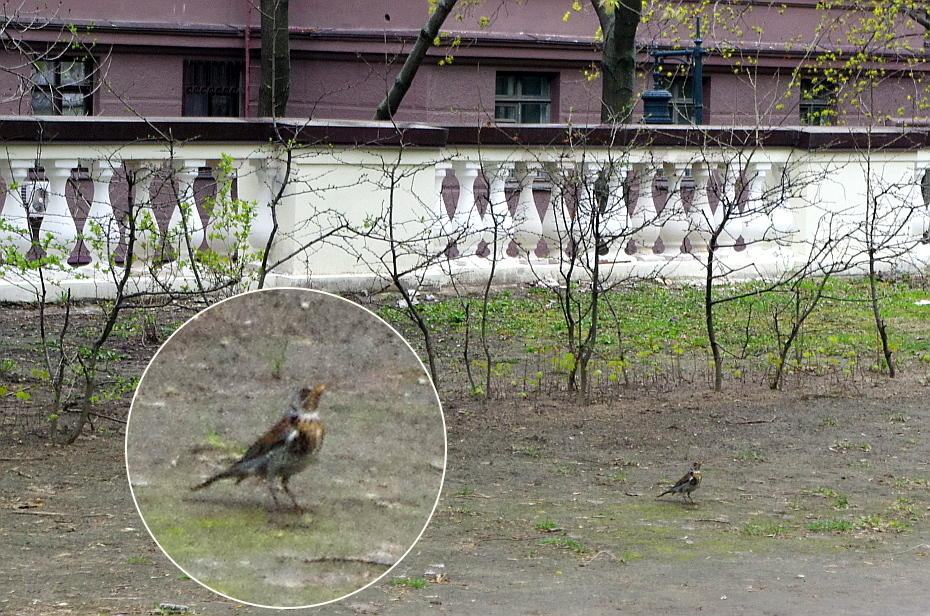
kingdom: Animalia
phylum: Chordata
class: Aves
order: Passeriformes
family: Turdidae
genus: Turdus
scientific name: Turdus pilaris
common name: Fieldfare
